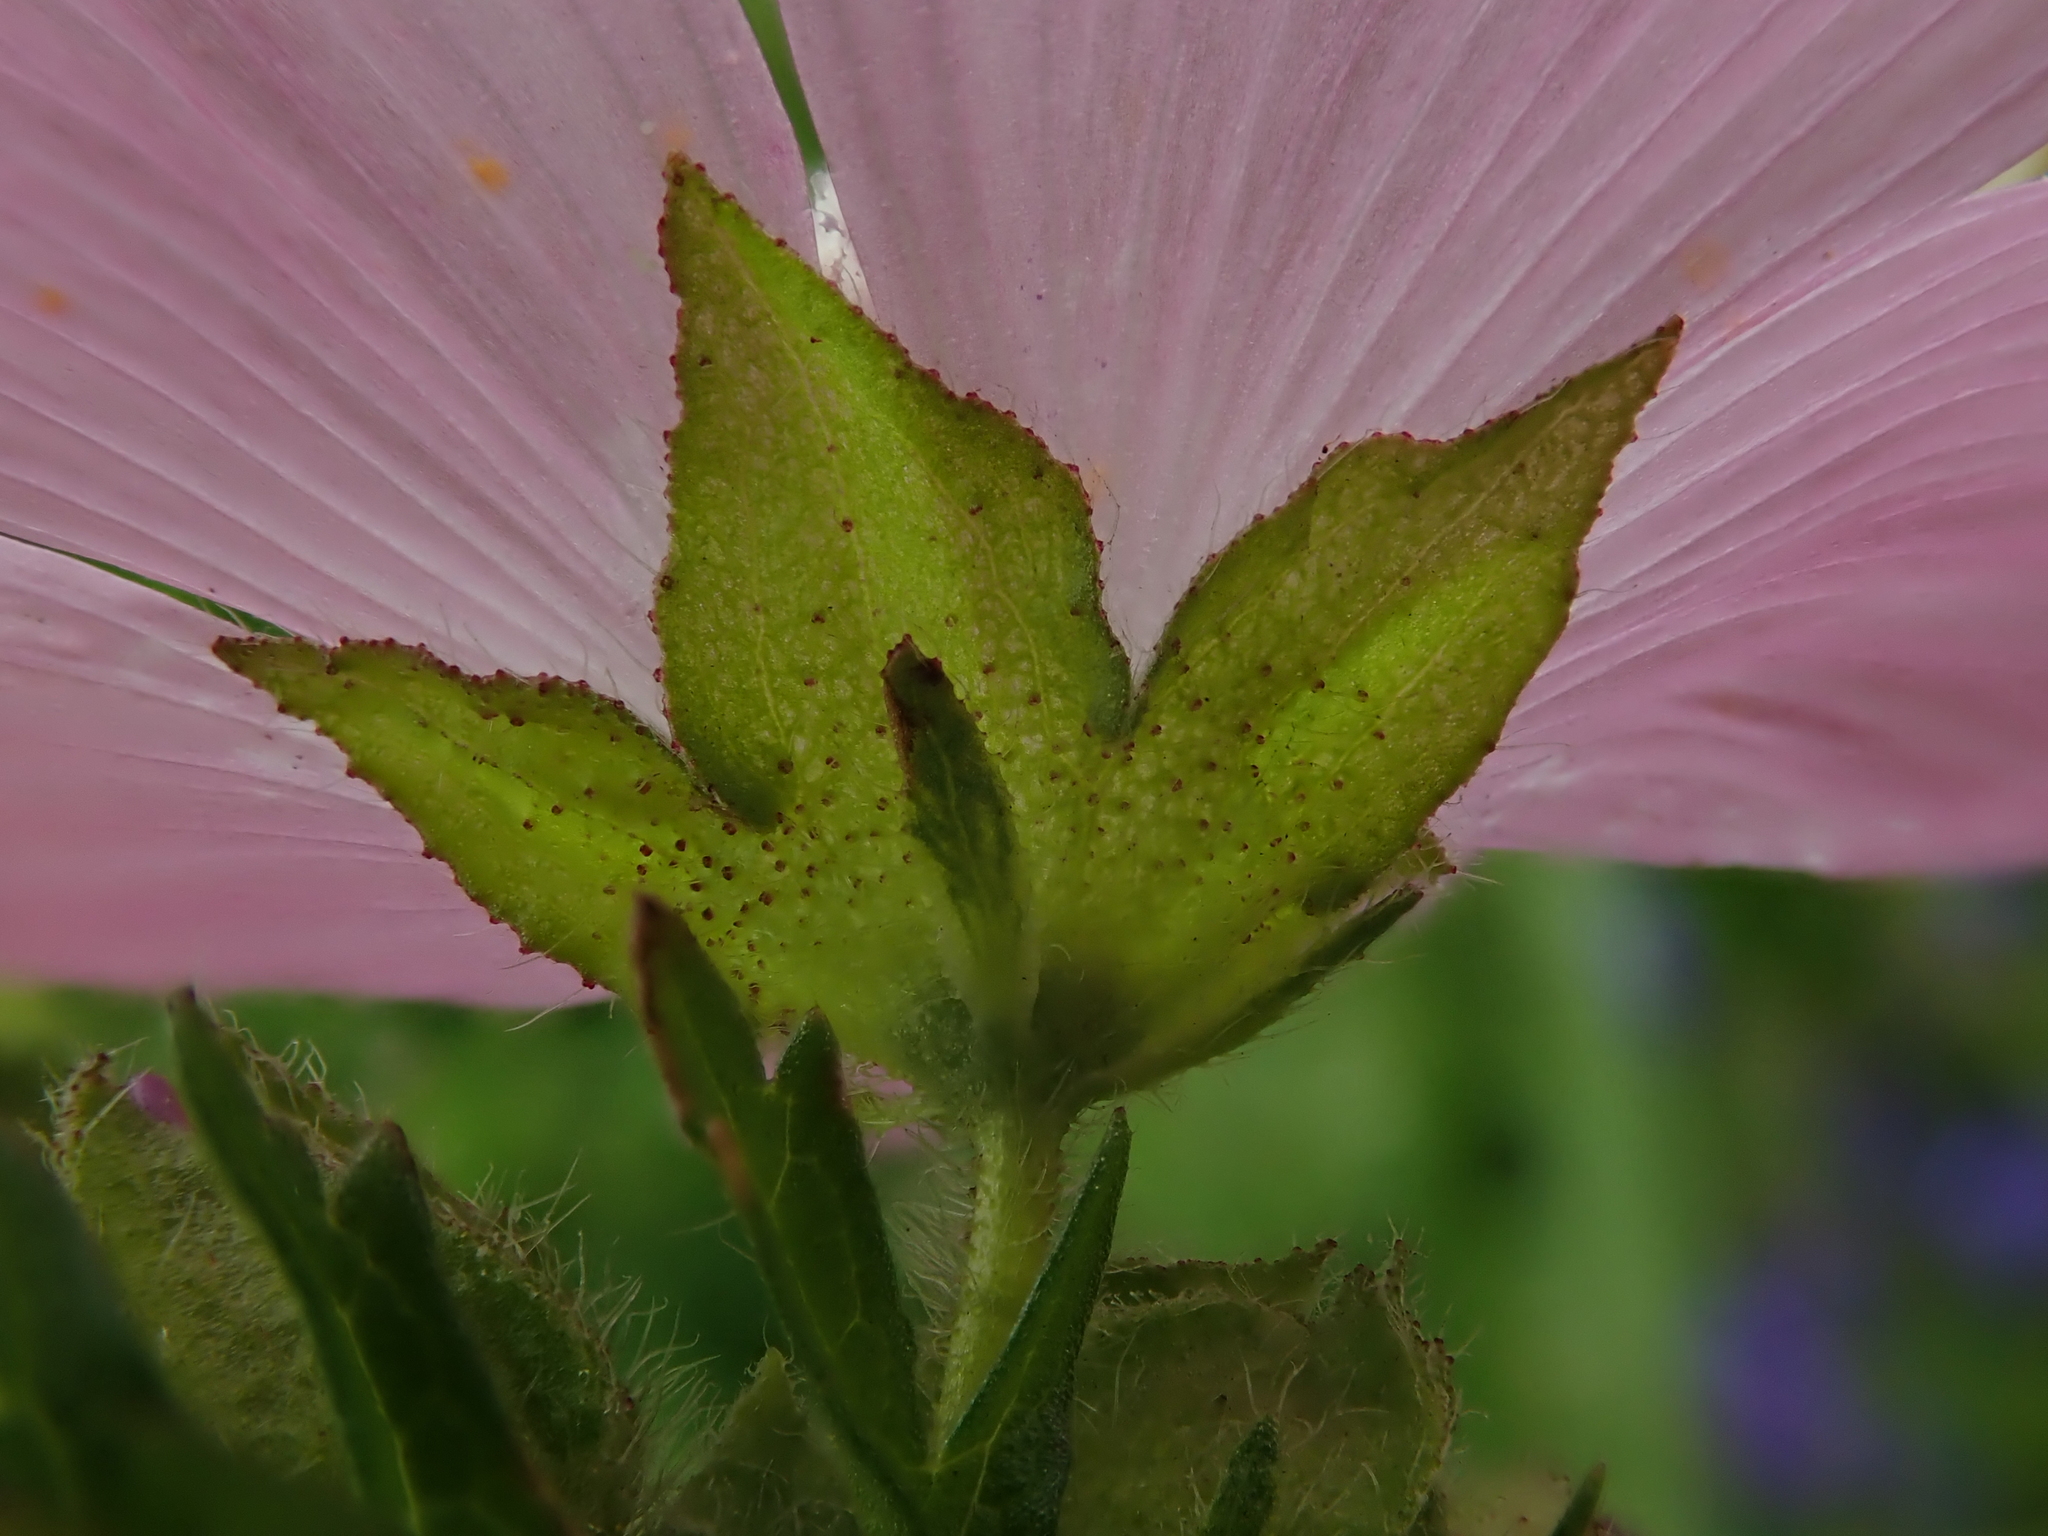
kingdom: Plantae
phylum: Tracheophyta
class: Magnoliopsida
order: Malvales
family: Malvaceae
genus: Malva
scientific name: Malva moschata
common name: Musk mallow
